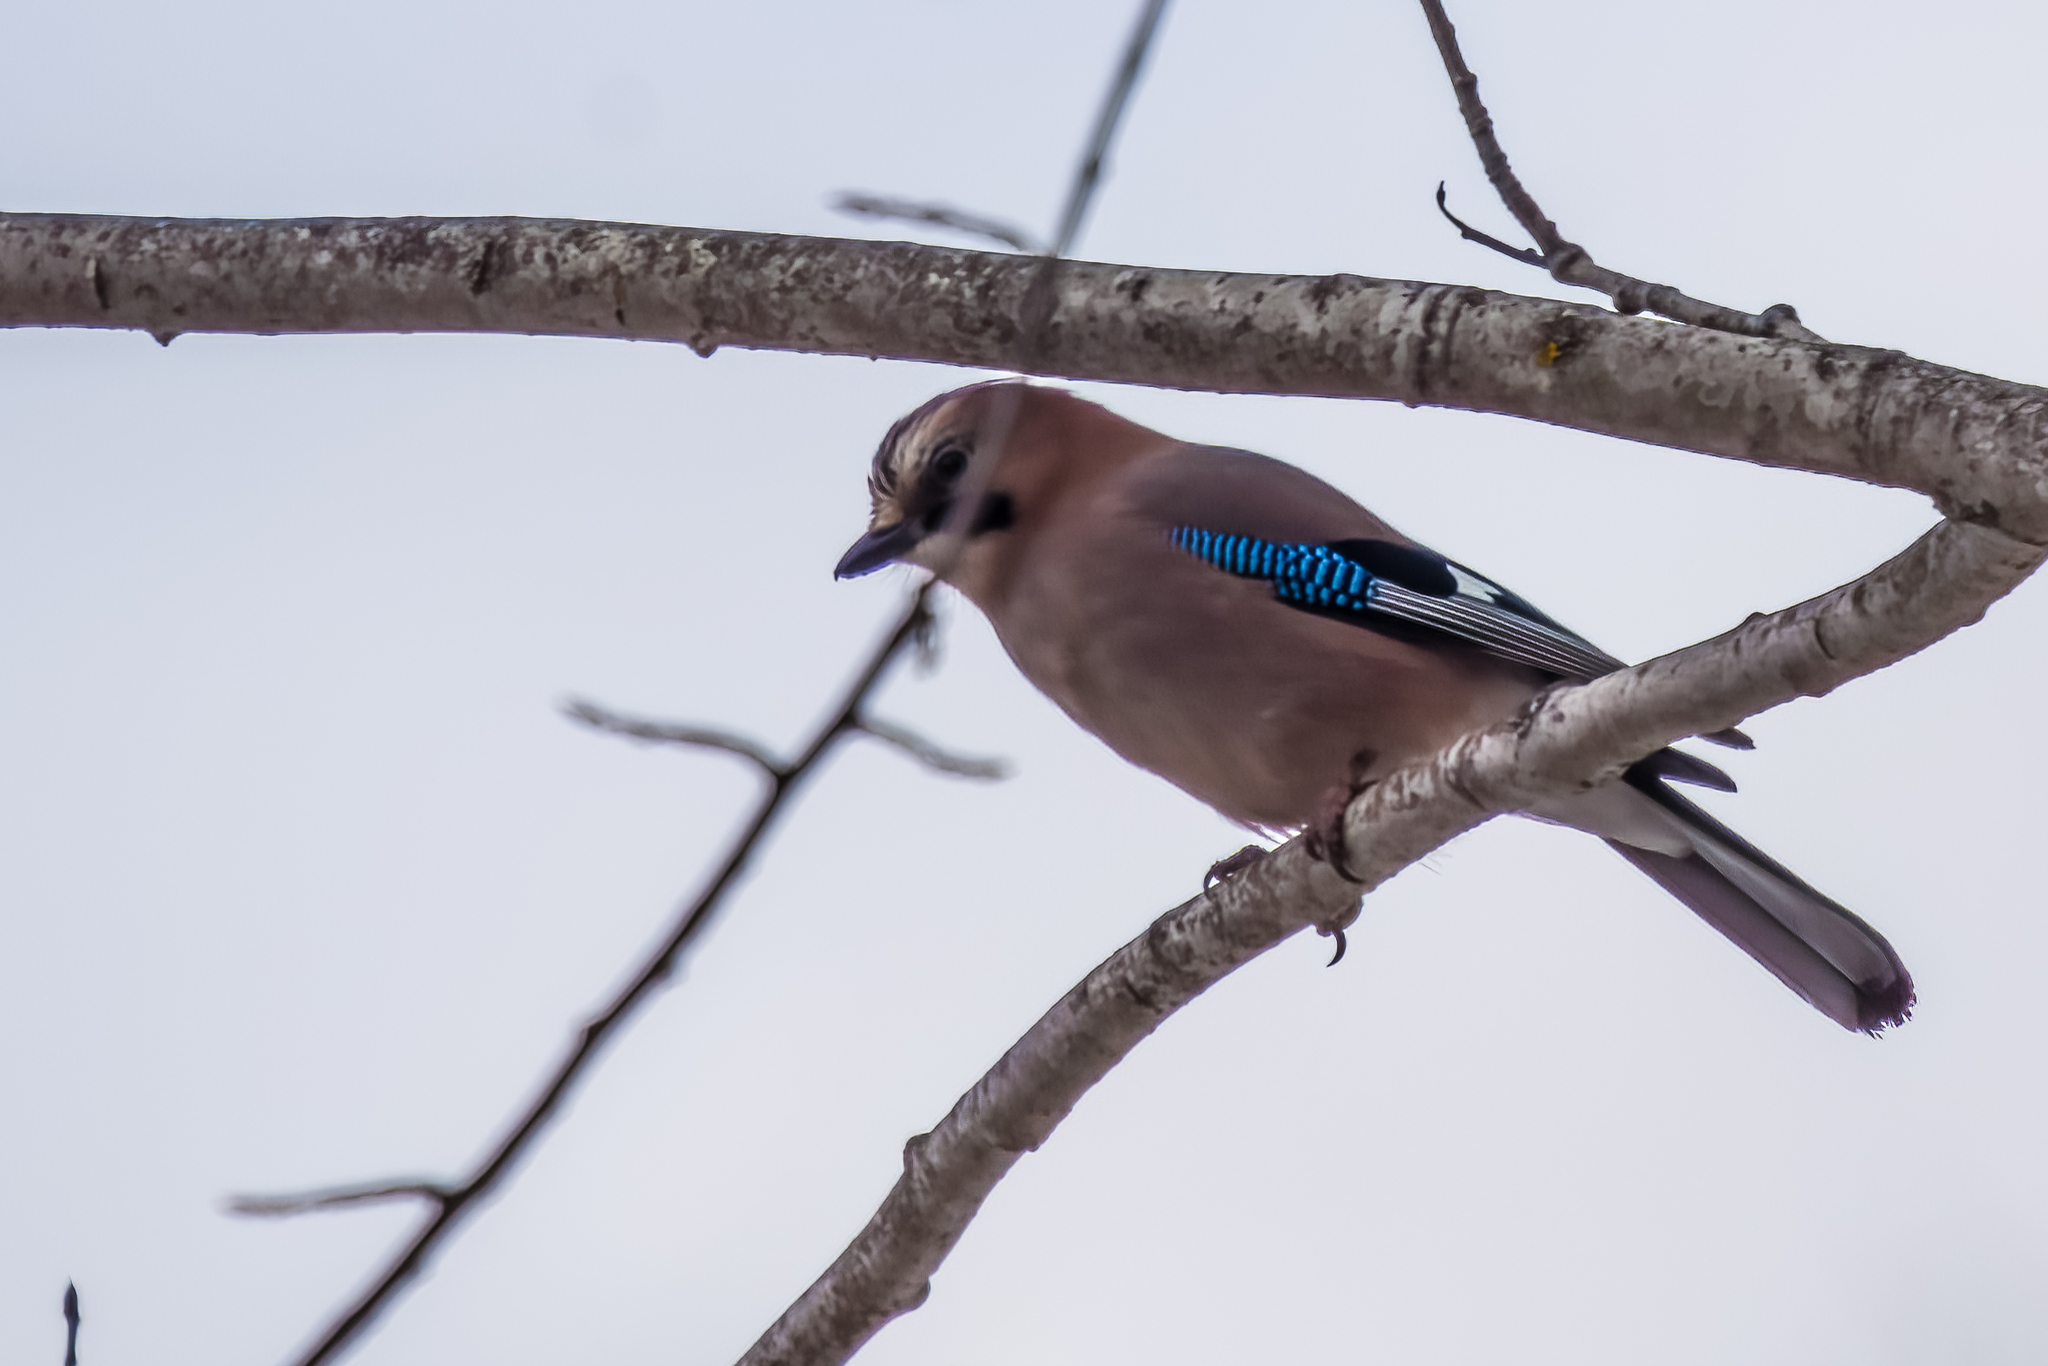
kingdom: Animalia
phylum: Chordata
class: Aves
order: Passeriformes
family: Corvidae
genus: Garrulus
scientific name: Garrulus glandarius
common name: Eurasian jay
